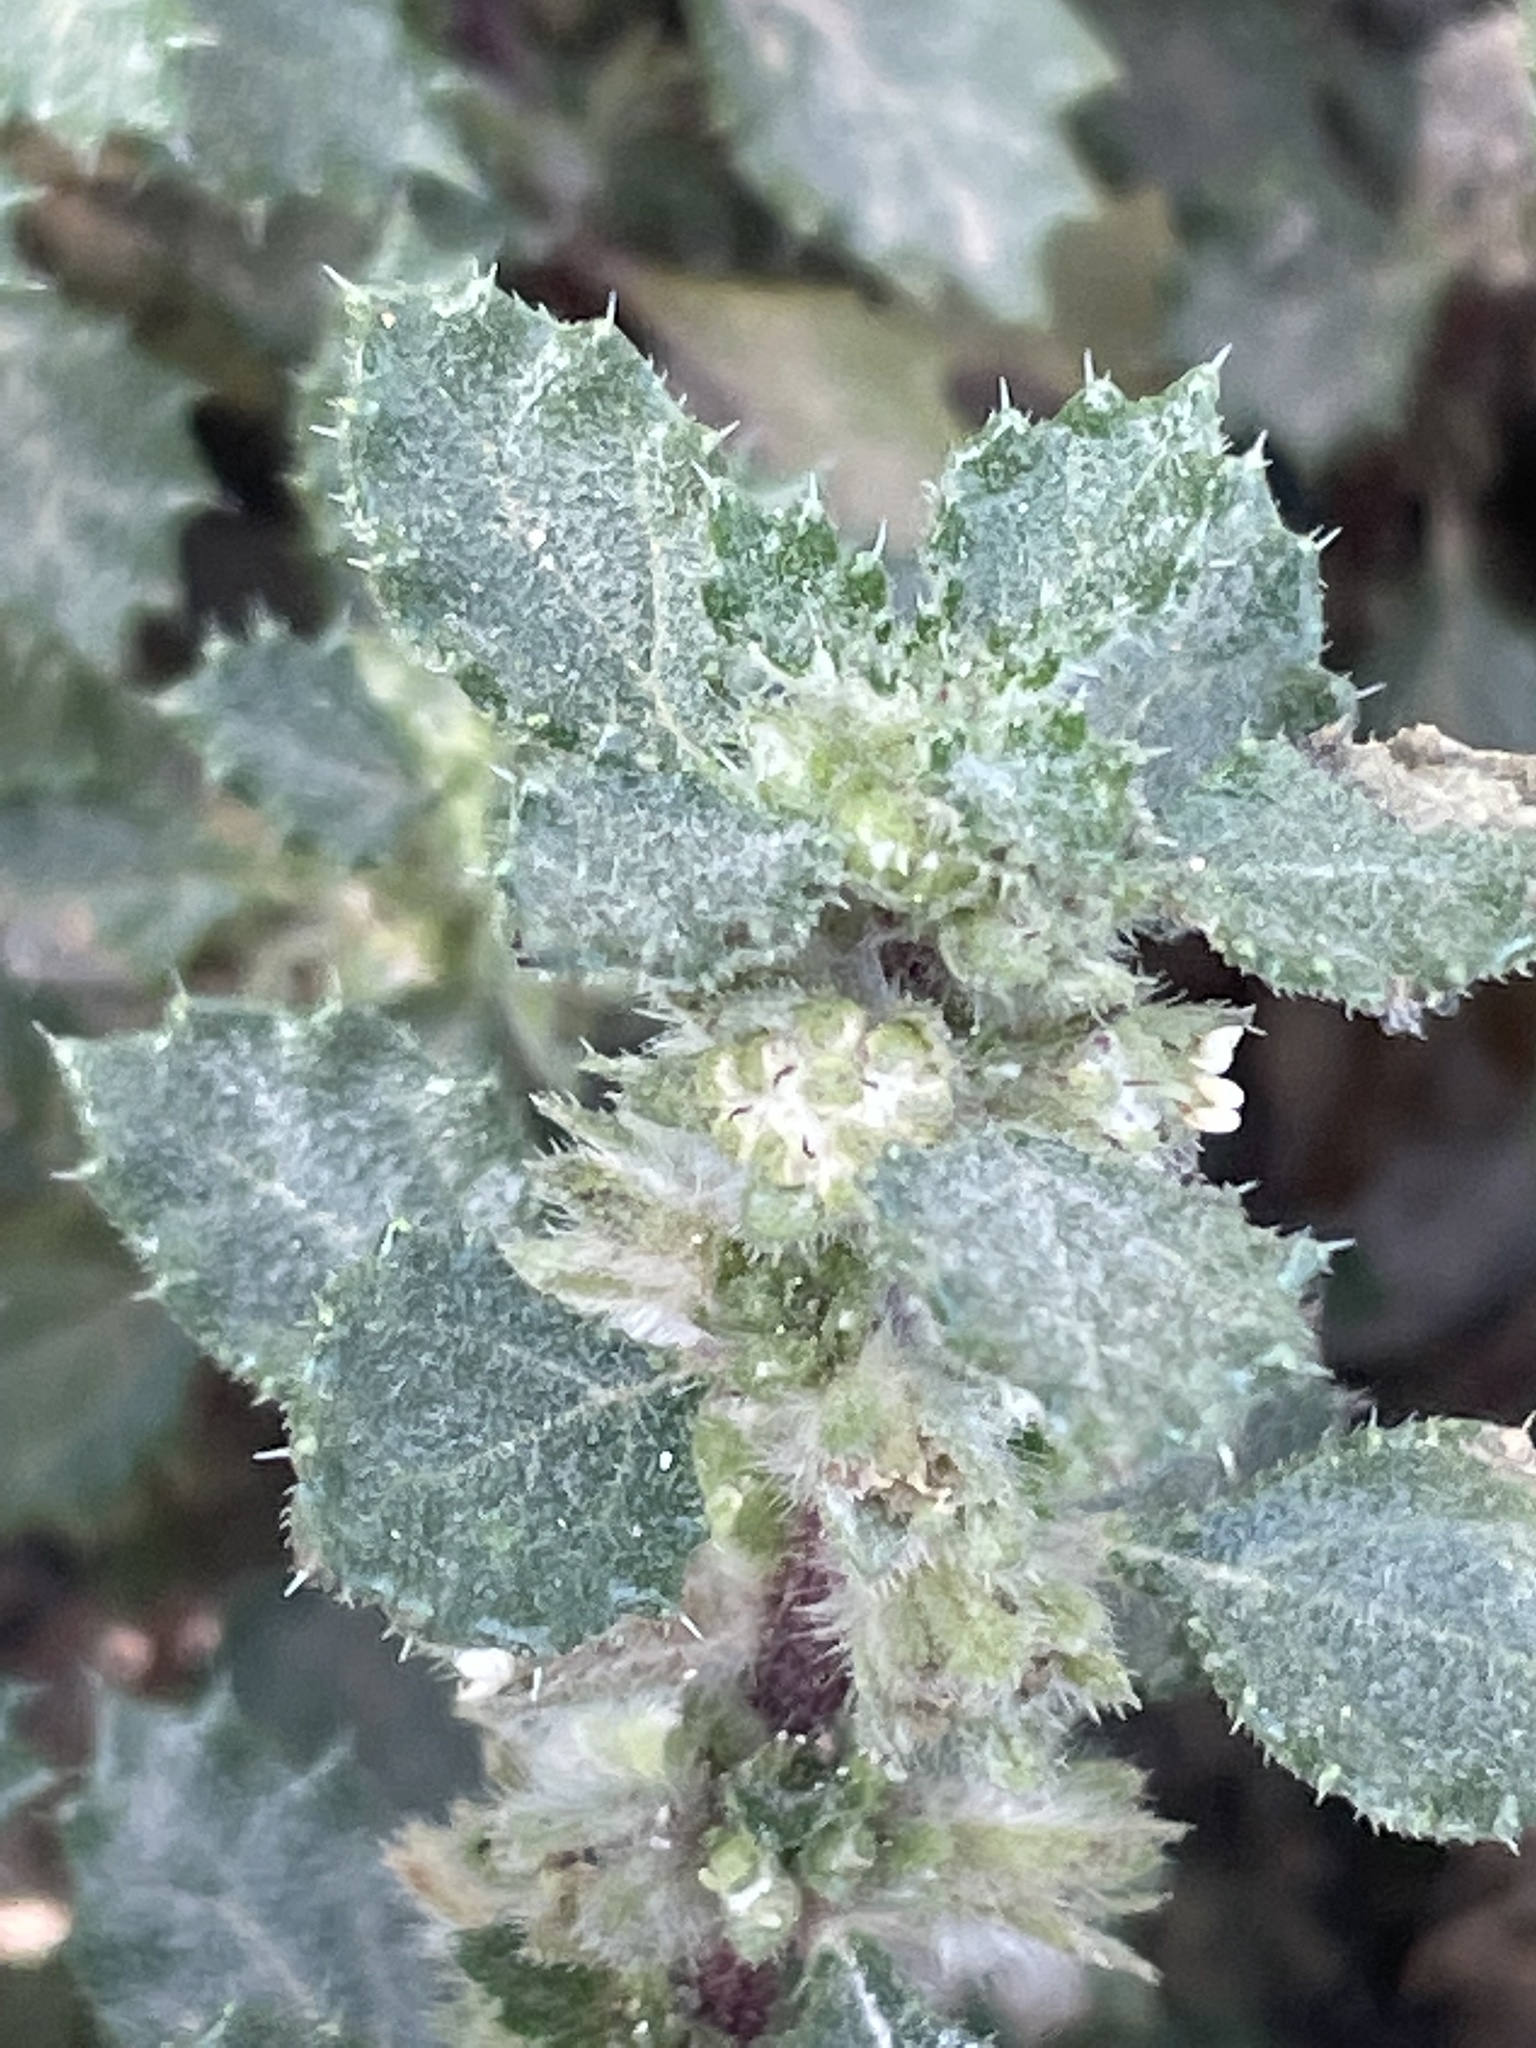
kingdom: Plantae
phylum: Tracheophyta
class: Magnoliopsida
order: Rosales
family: Urticaceae
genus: Forsskaolea
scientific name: Forsskaolea procridifolia
